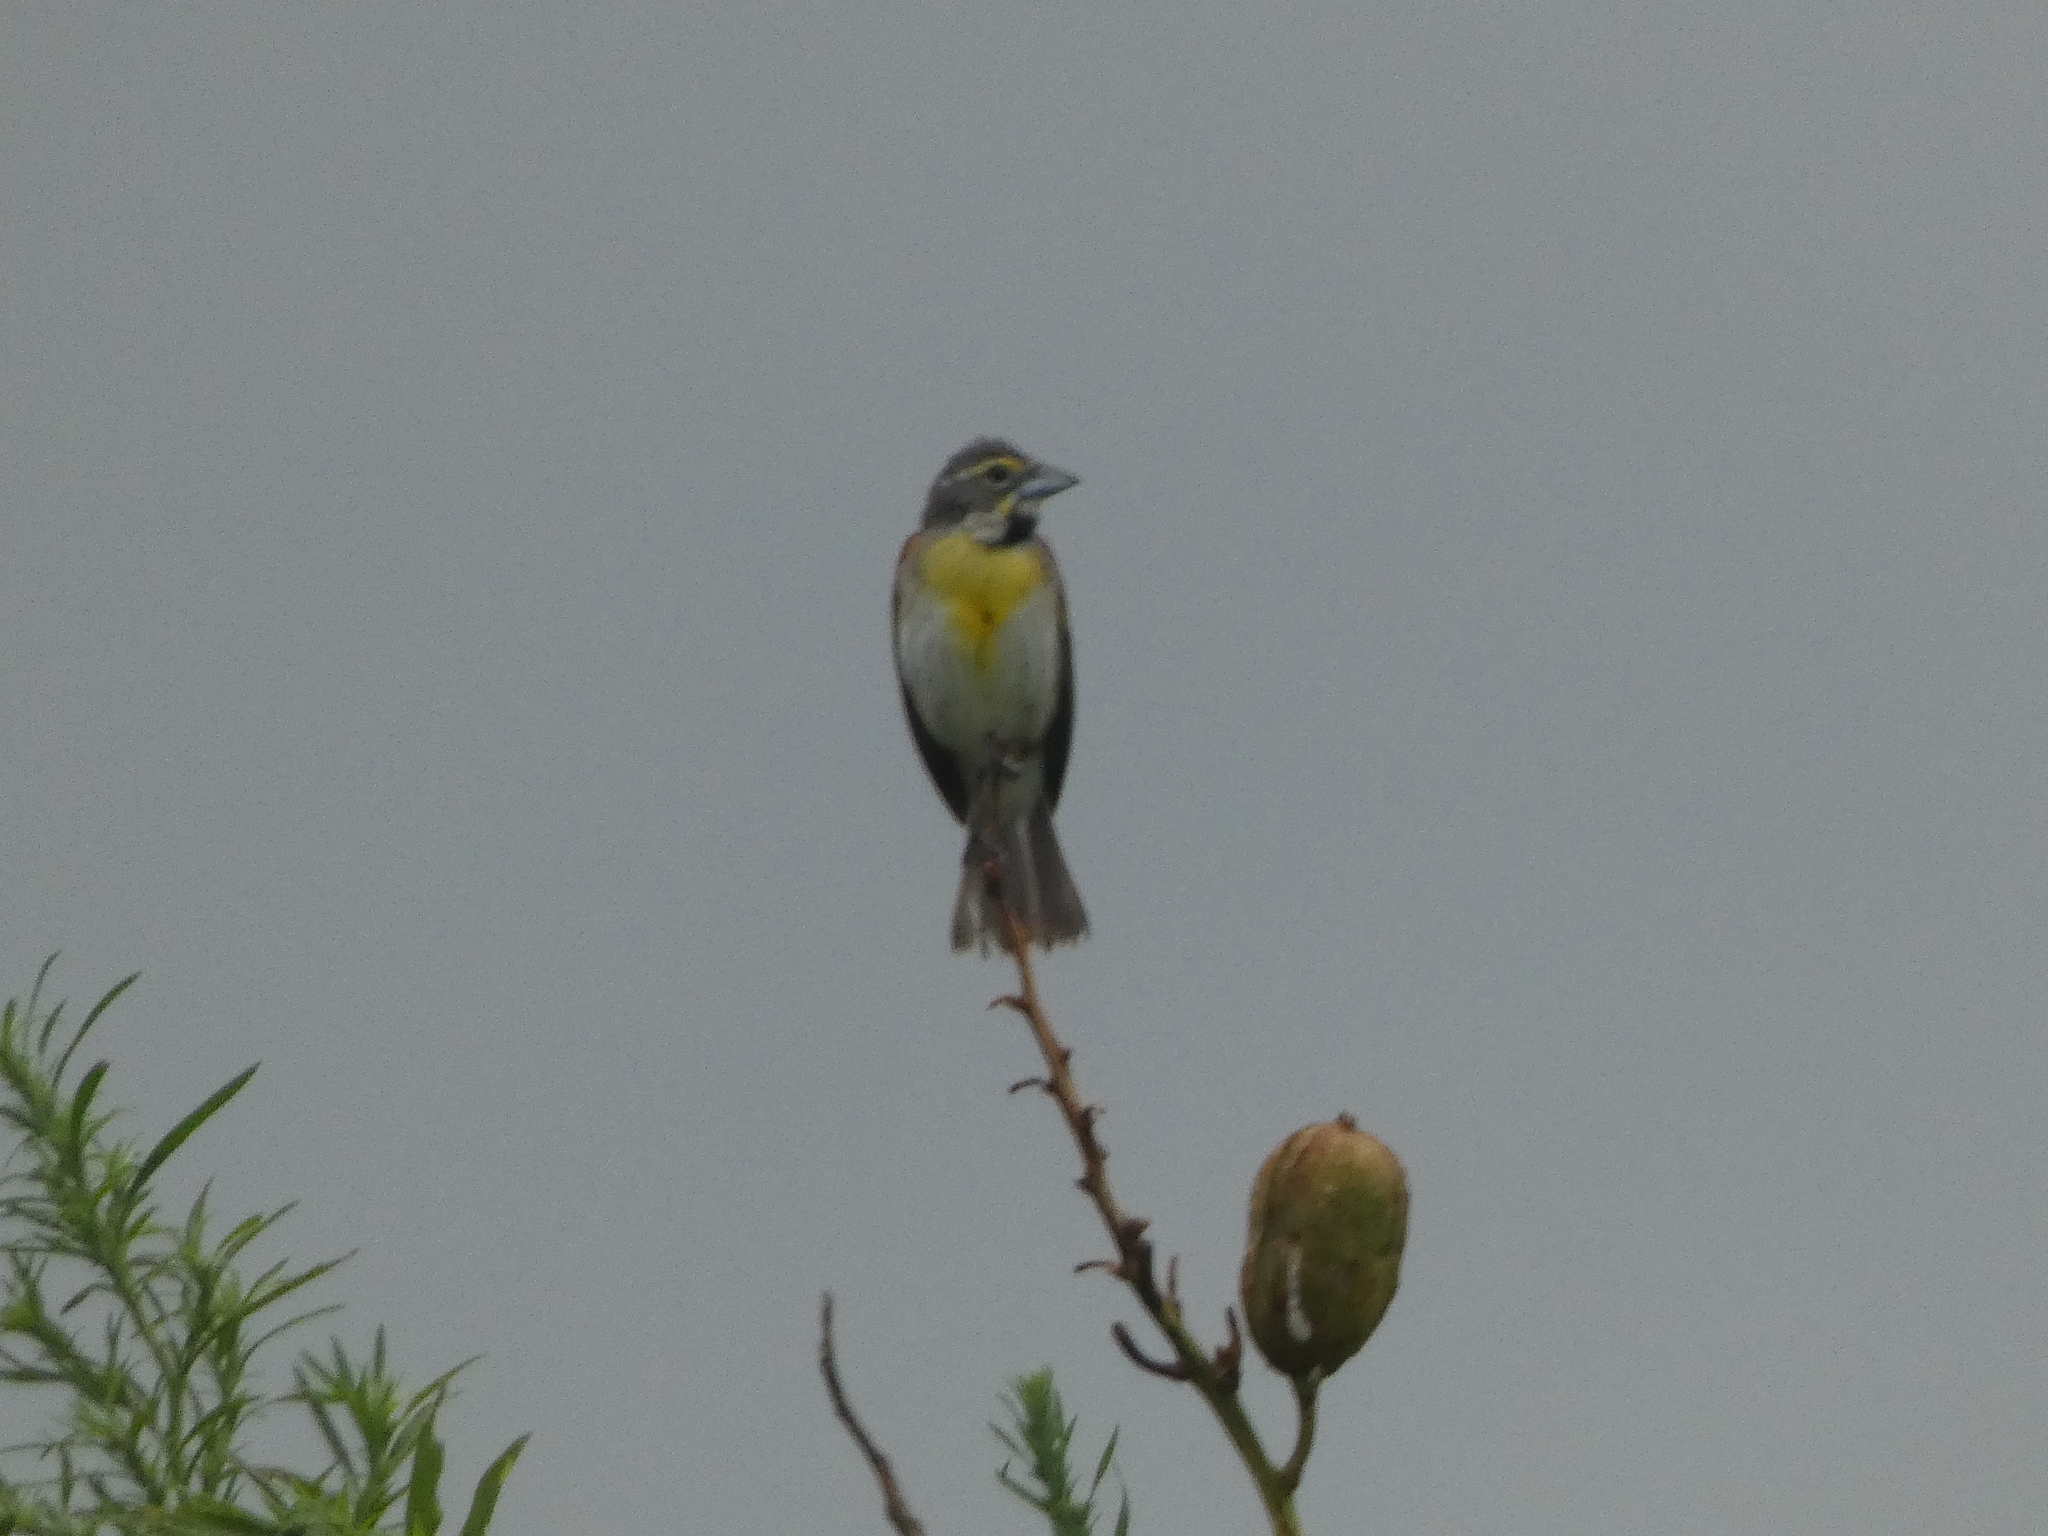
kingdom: Animalia
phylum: Chordata
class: Aves
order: Passeriformes
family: Cardinalidae
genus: Spiza
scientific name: Spiza americana
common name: Dickcissel
